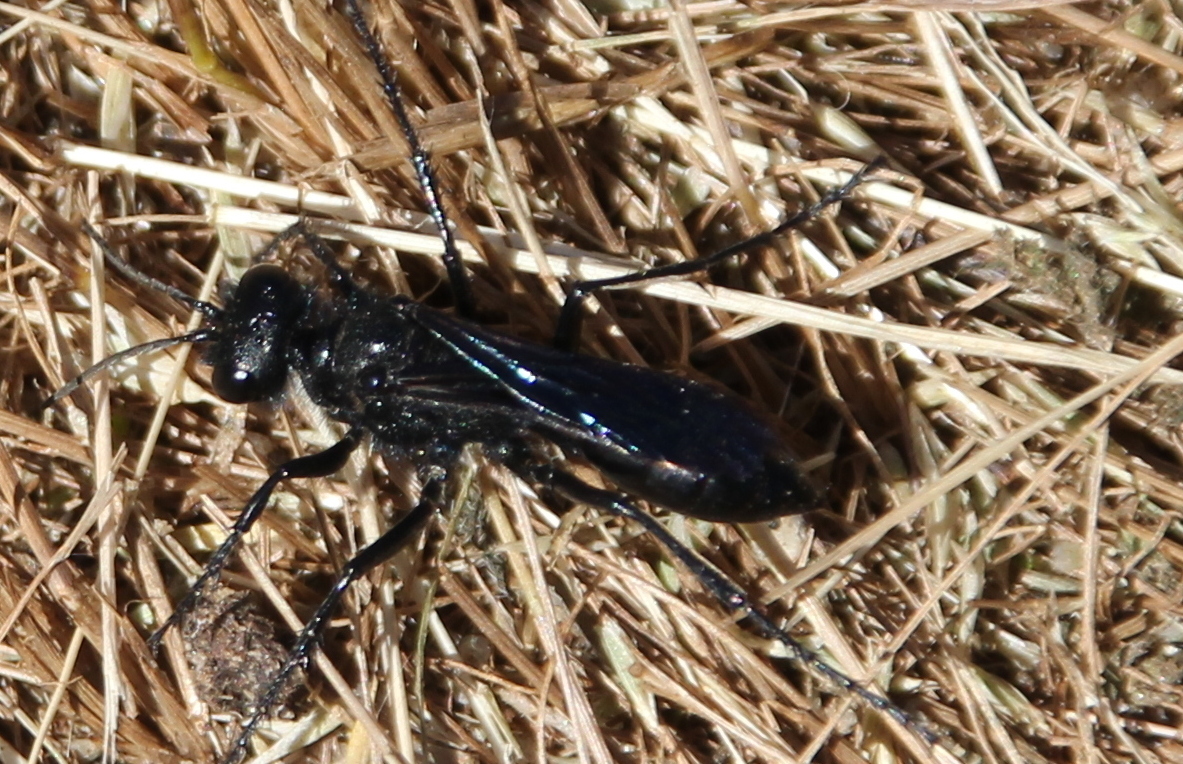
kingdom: Animalia
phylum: Arthropoda
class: Insecta
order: Hymenoptera
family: Sphecidae
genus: Podalonia
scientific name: Podalonia
